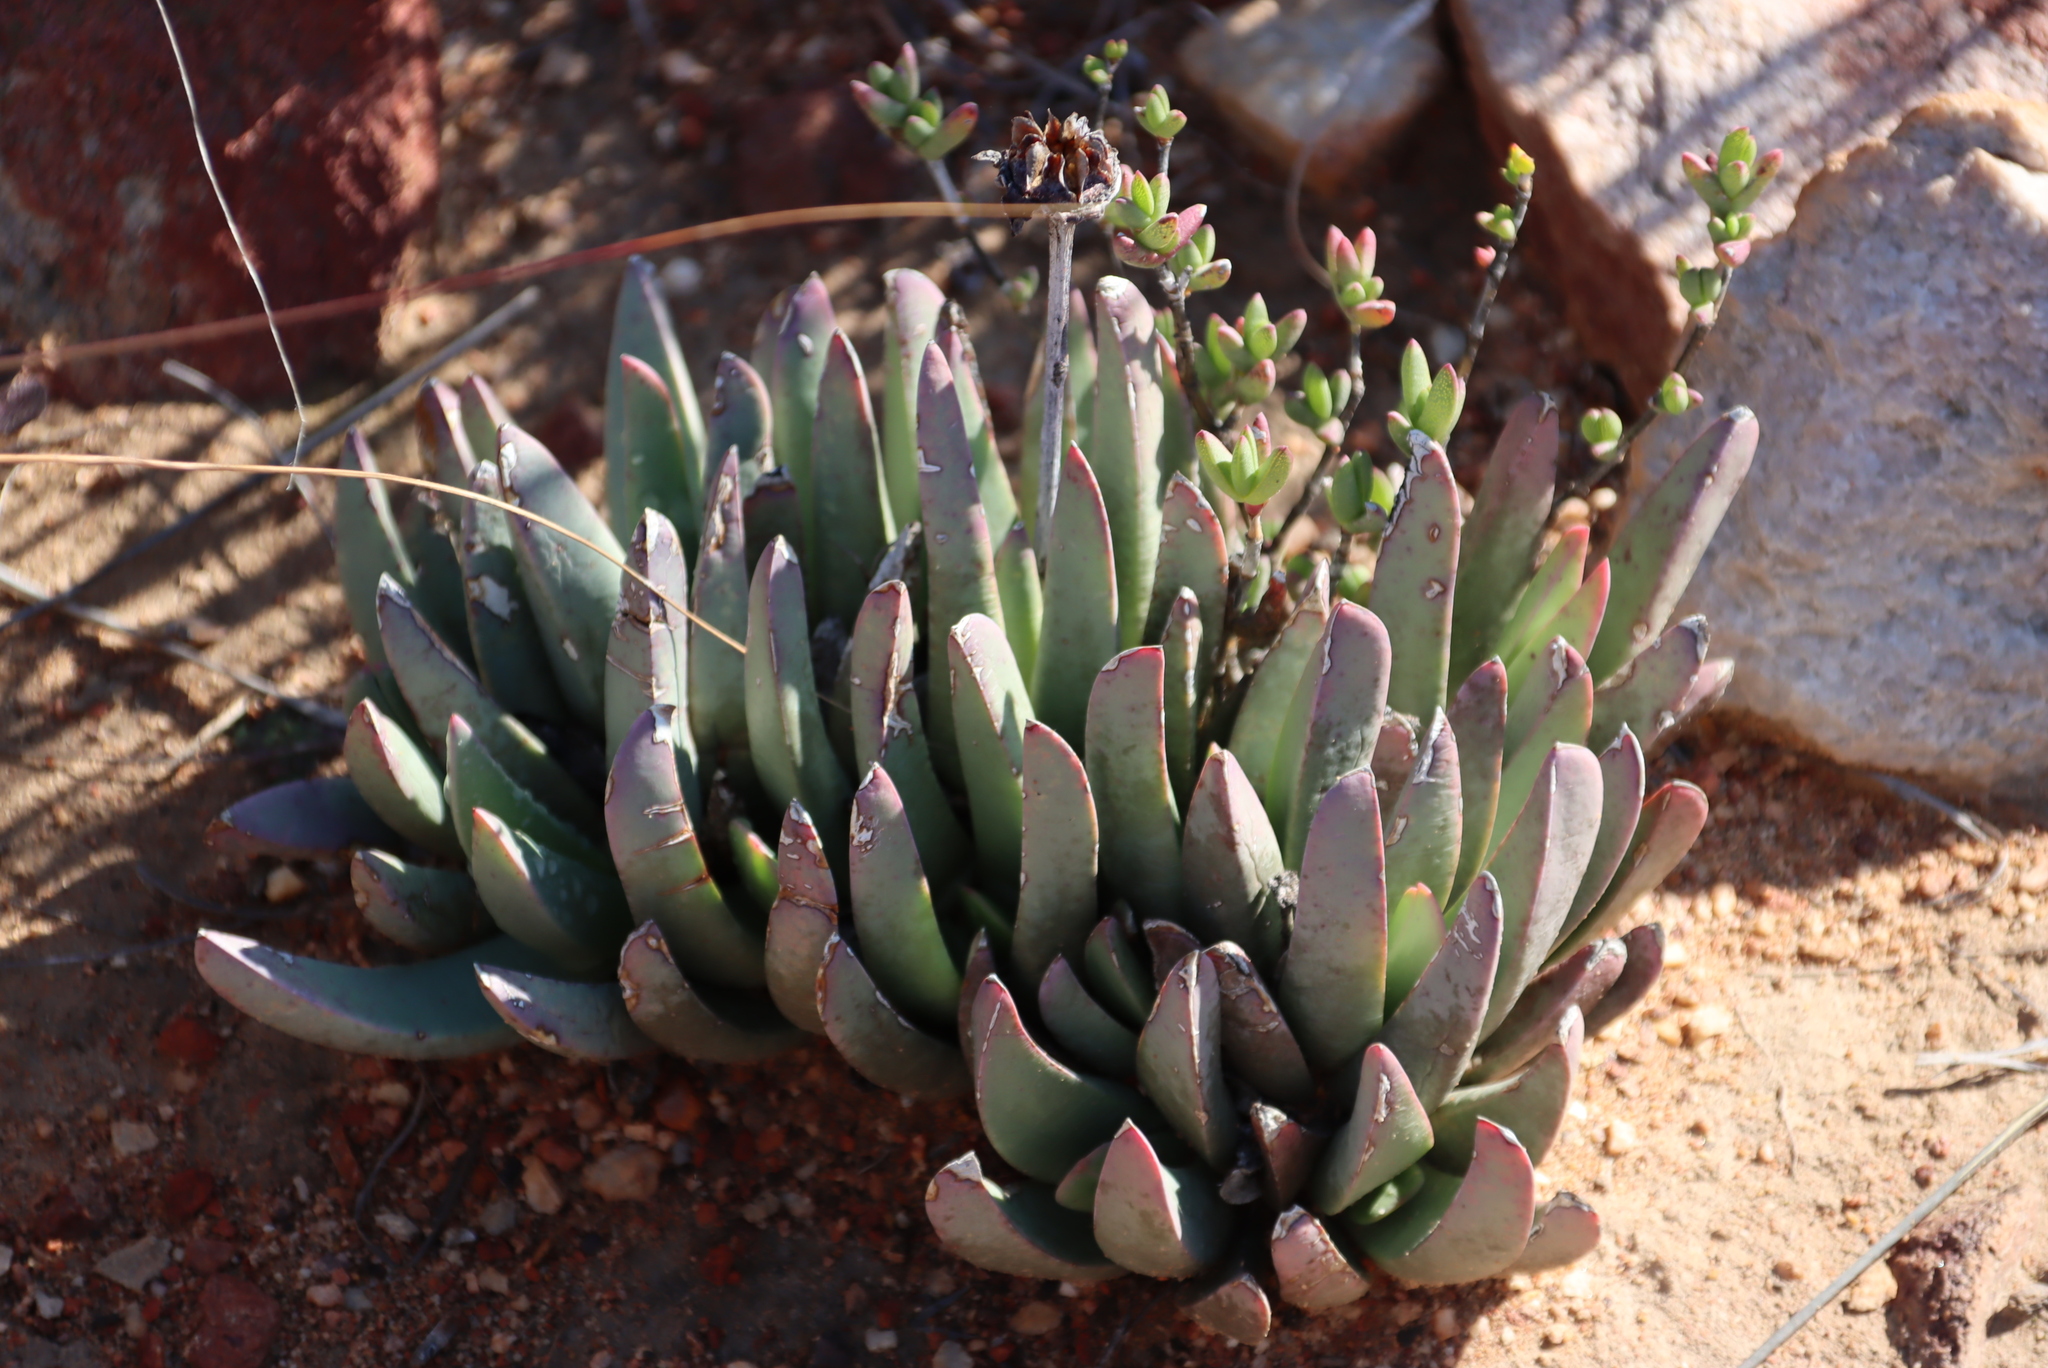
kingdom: Plantae
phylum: Tracheophyta
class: Magnoliopsida
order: Caryophyllales
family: Aizoaceae
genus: Machairophyllum
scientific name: Machairophyllum bijlii
